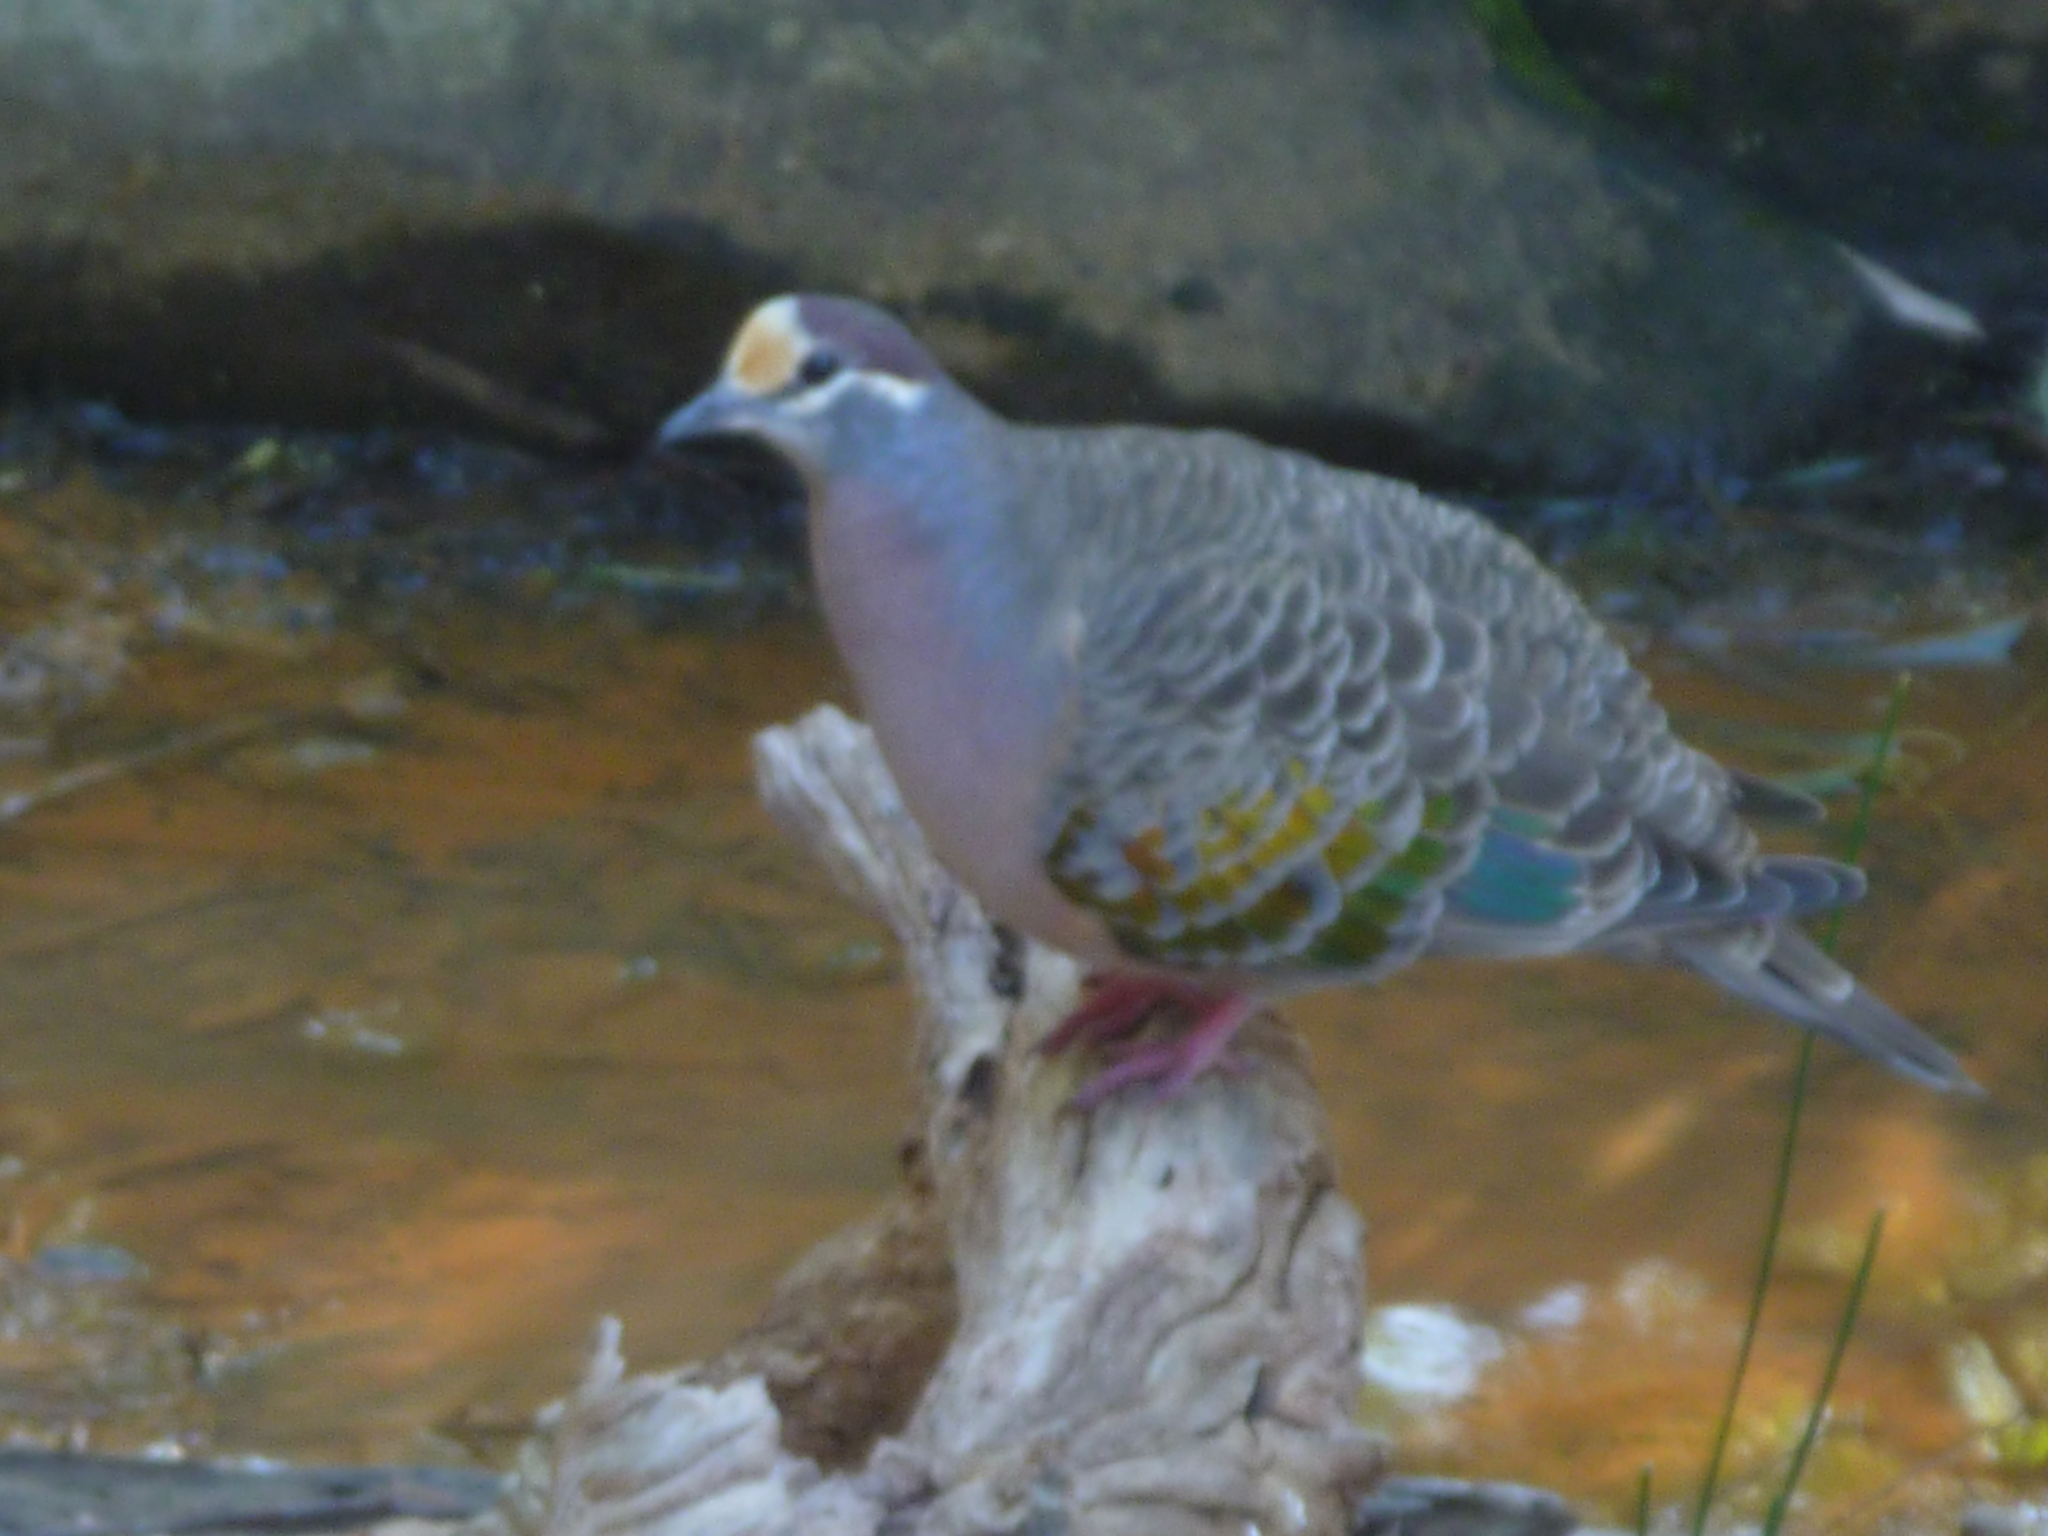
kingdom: Animalia
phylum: Chordata
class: Aves
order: Columbiformes
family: Columbidae
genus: Phaps
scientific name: Phaps chalcoptera
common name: Common bronzewing
